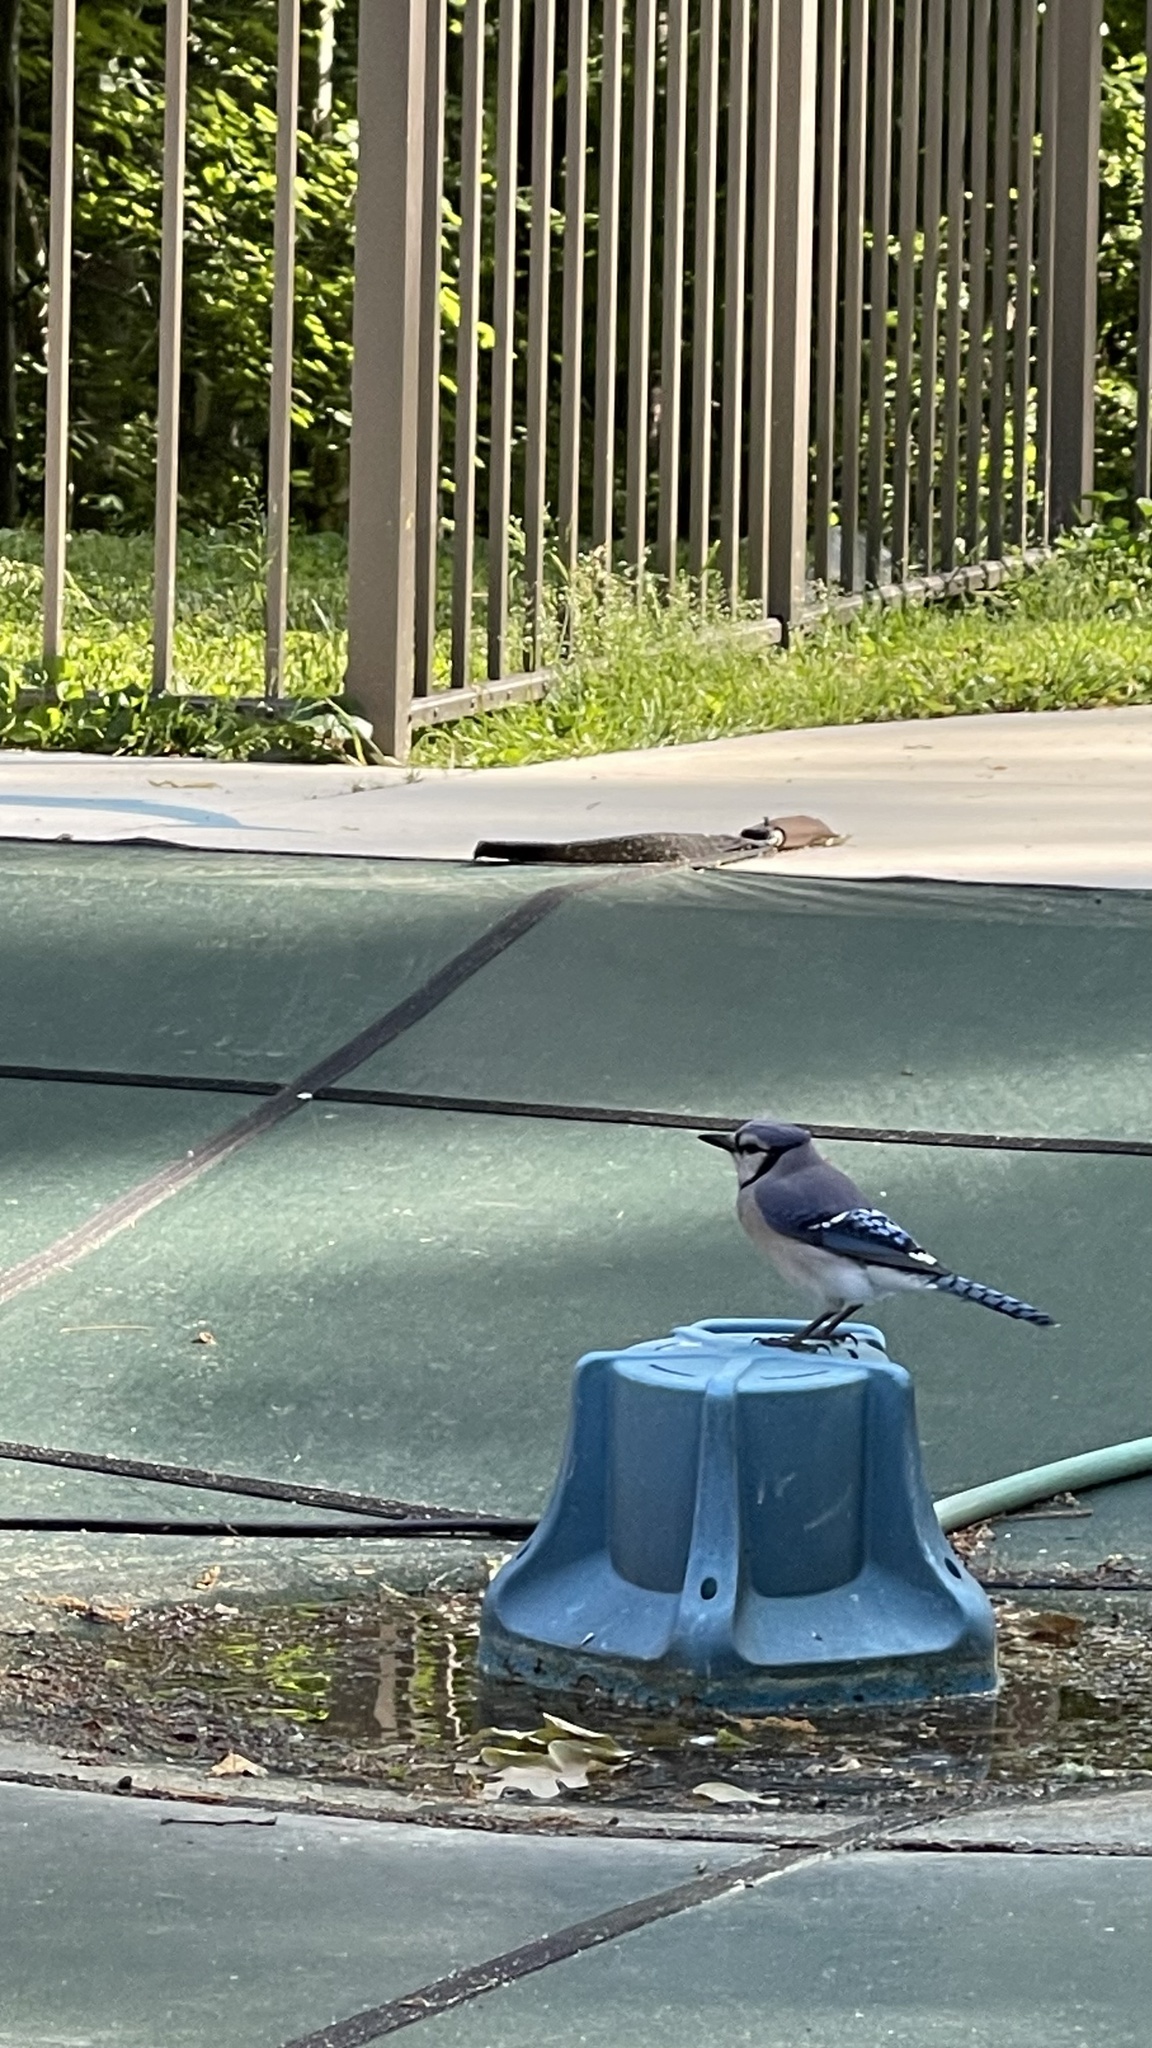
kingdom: Animalia
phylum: Chordata
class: Aves
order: Passeriformes
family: Corvidae
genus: Cyanocitta
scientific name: Cyanocitta cristata
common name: Blue jay
